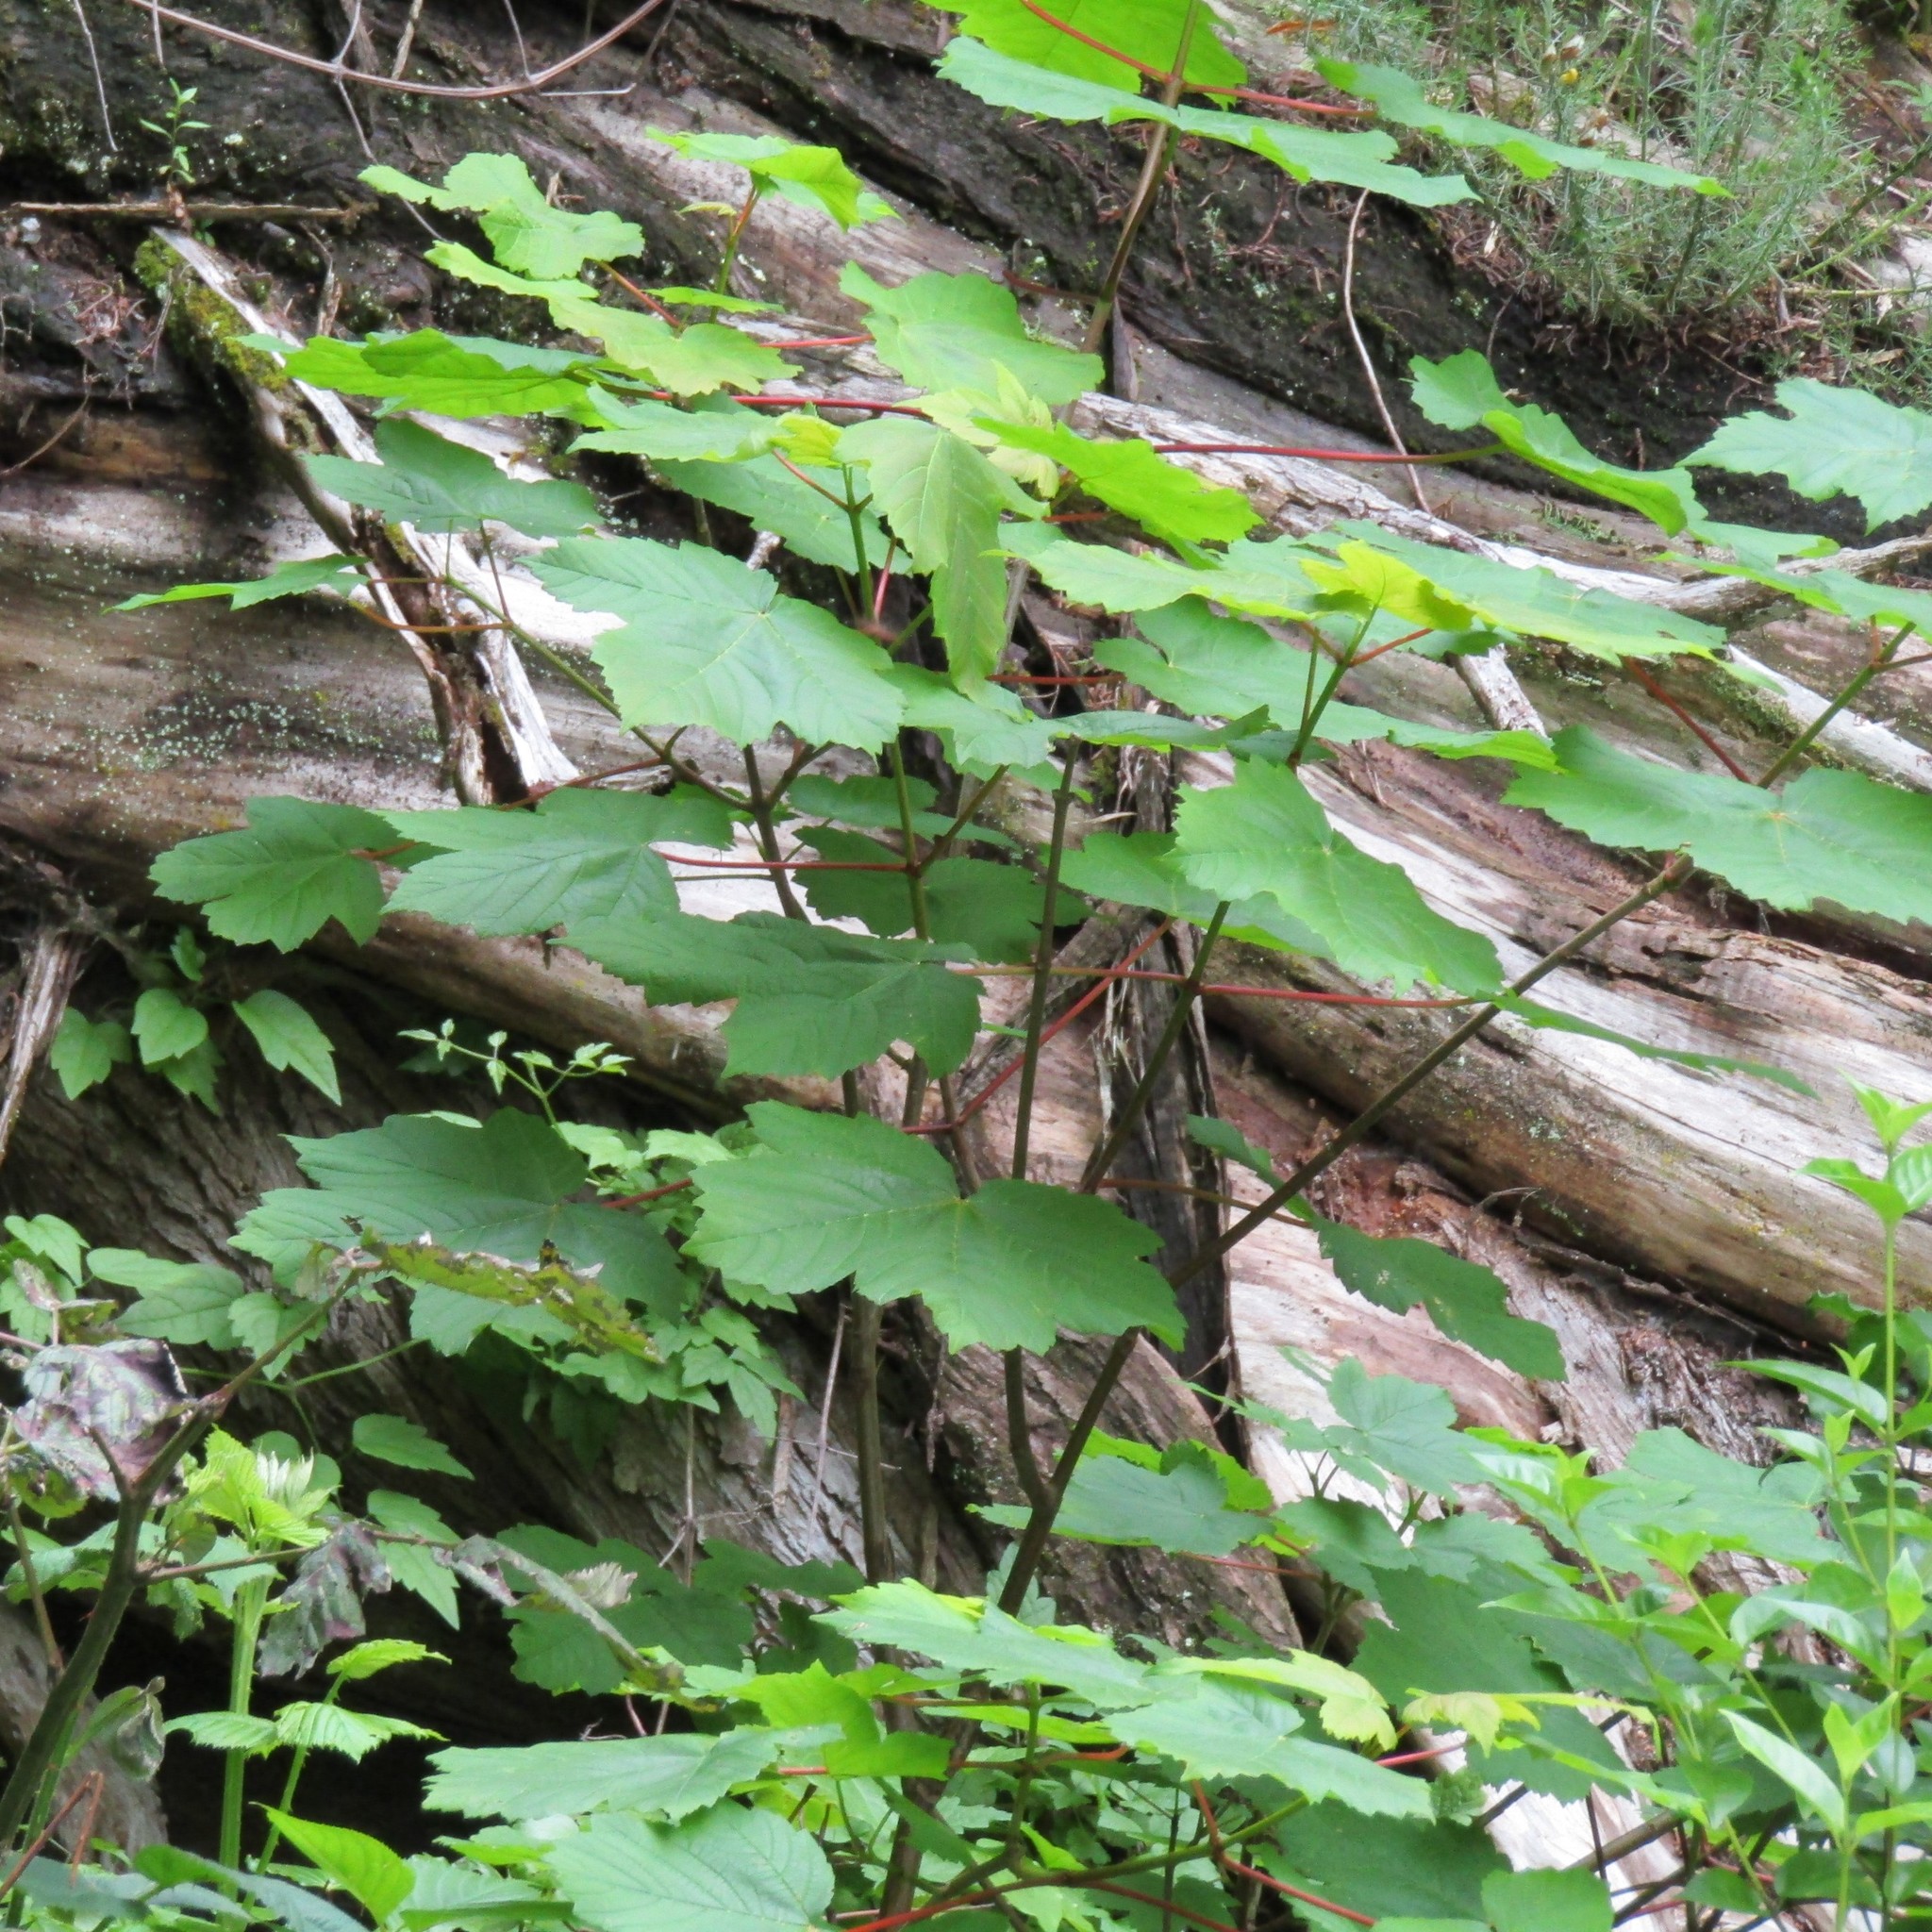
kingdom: Plantae
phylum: Tracheophyta
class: Magnoliopsida
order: Sapindales
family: Sapindaceae
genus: Acer
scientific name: Acer pseudoplatanus
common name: Sycamore
